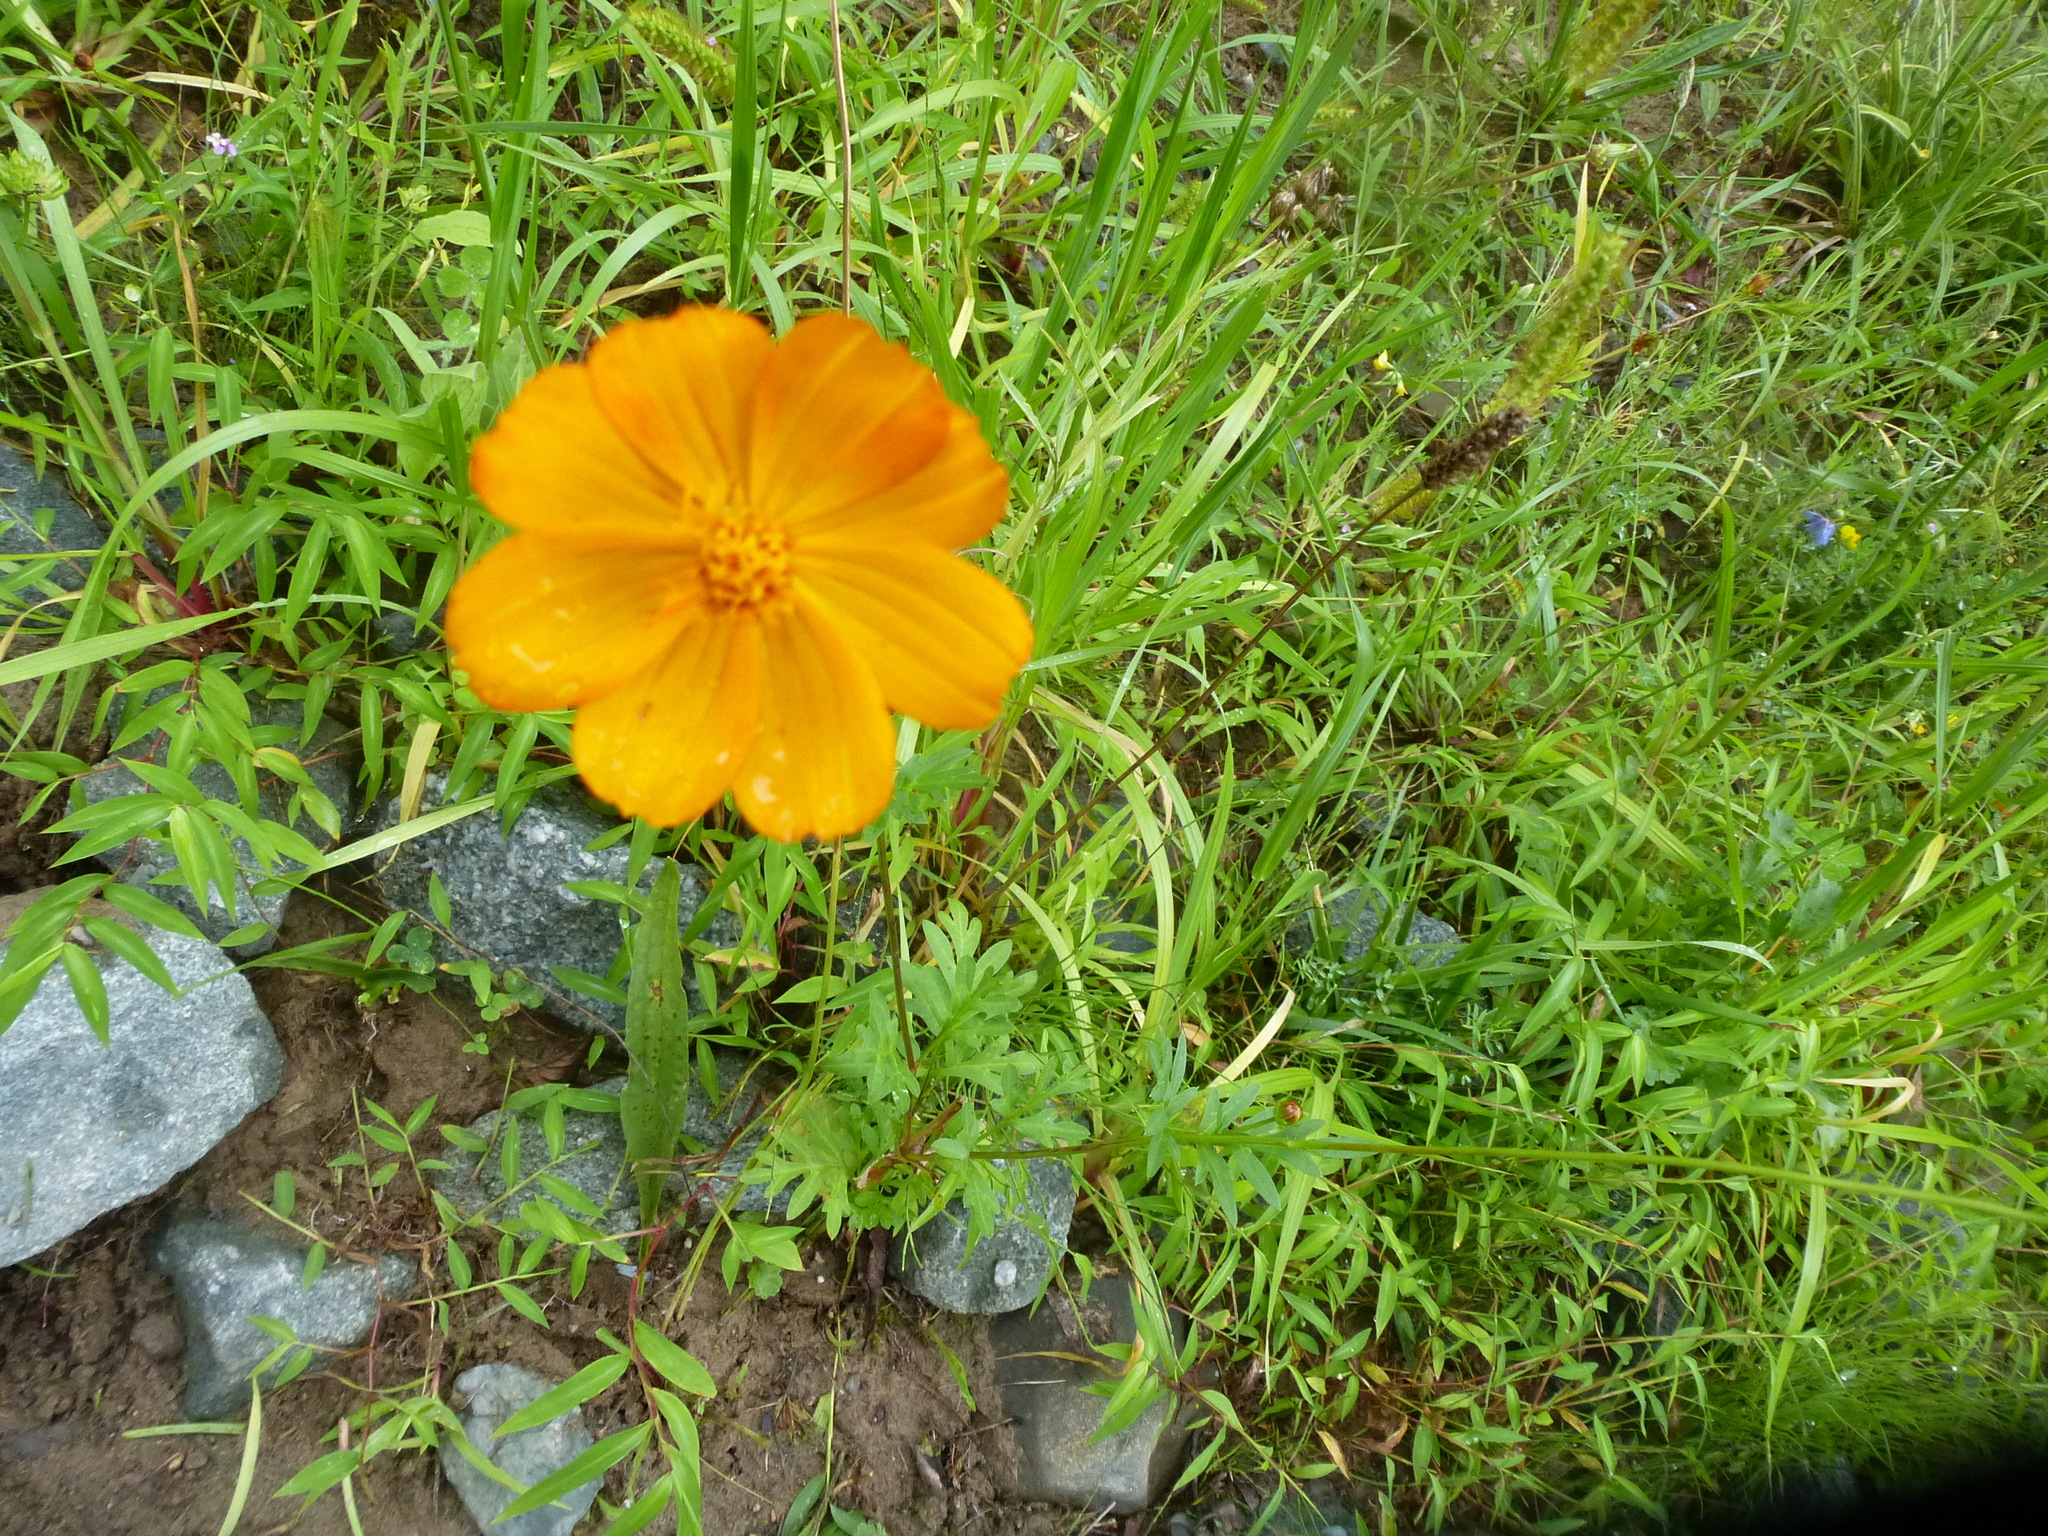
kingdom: Plantae
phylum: Tracheophyta
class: Magnoliopsida
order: Asterales
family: Asteraceae
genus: Cosmos
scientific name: Cosmos sulphureus
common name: Sulphur cosmos
